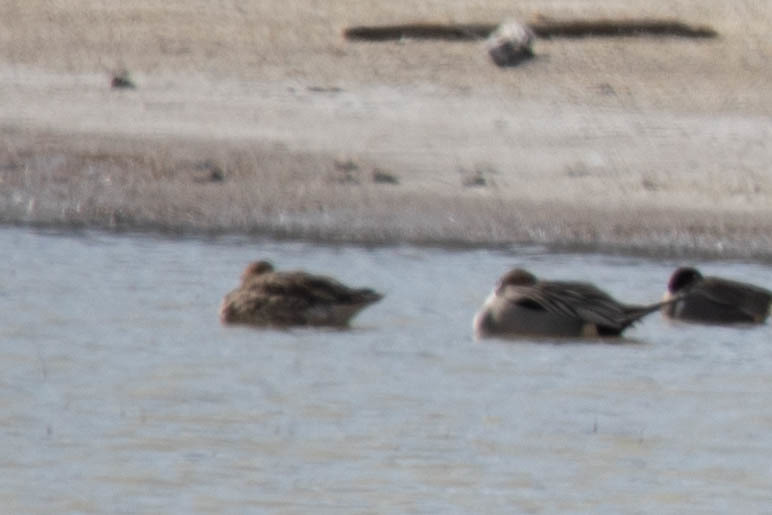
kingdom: Animalia
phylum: Chordata
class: Aves
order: Anseriformes
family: Anatidae
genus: Anas
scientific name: Anas acuta
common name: Northern pintail
